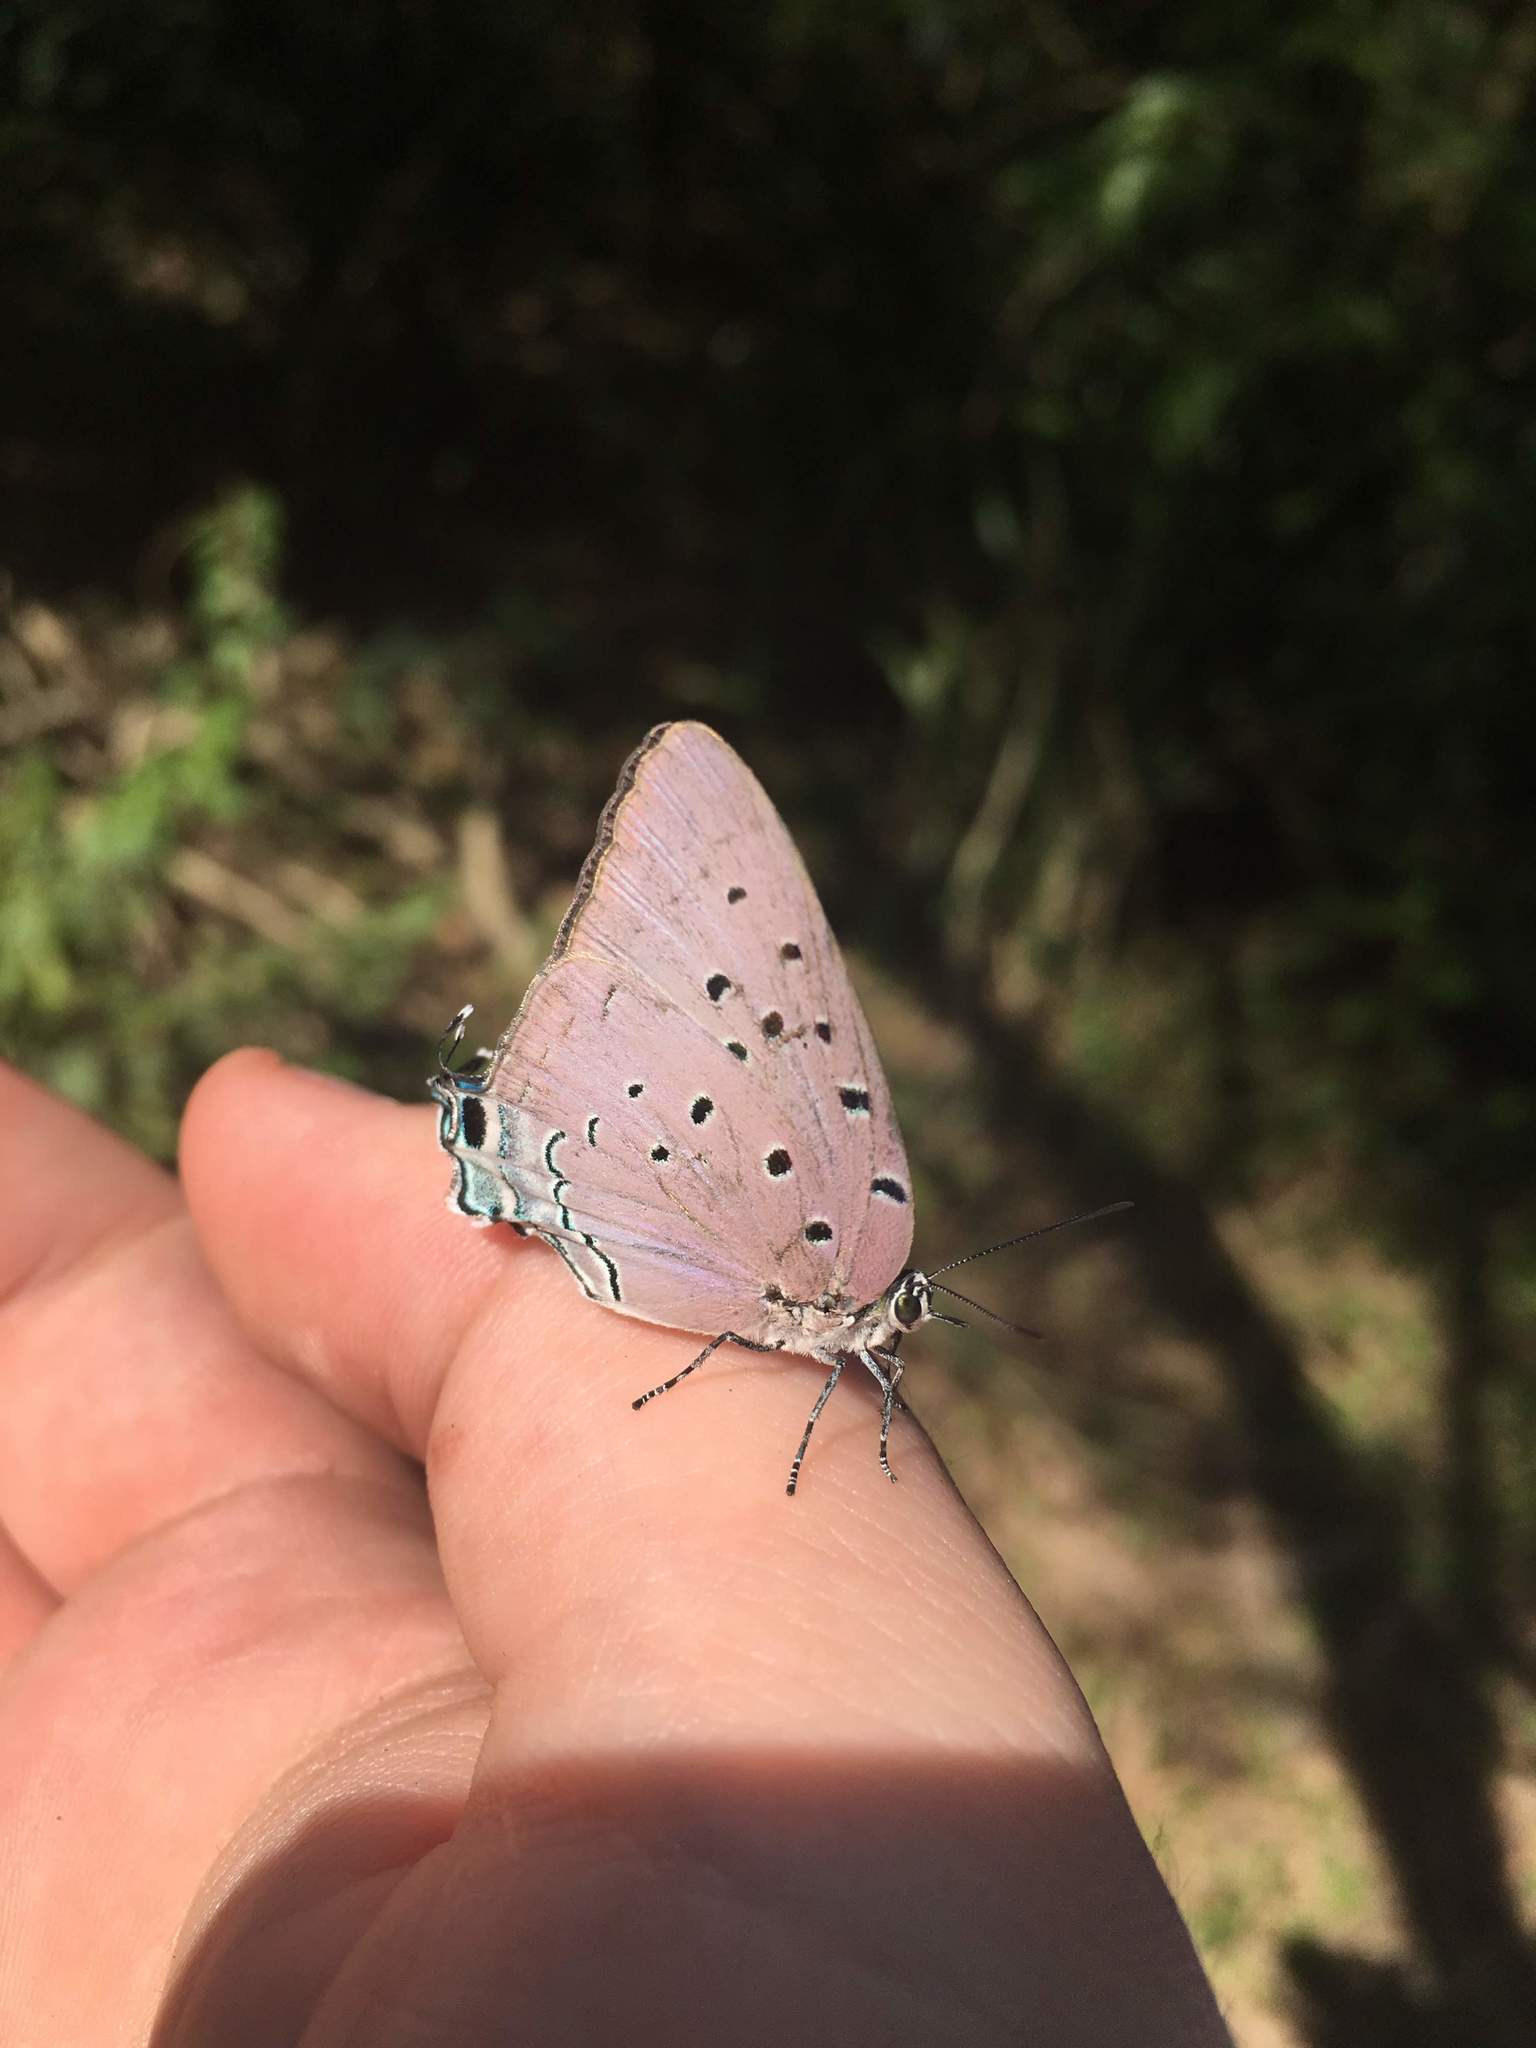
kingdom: Animalia
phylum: Arthropoda
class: Insecta
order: Lepidoptera
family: Lycaenidae
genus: Pseudolycaena
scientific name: Pseudolycaena marsyas
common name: Marsyas hairstreak
